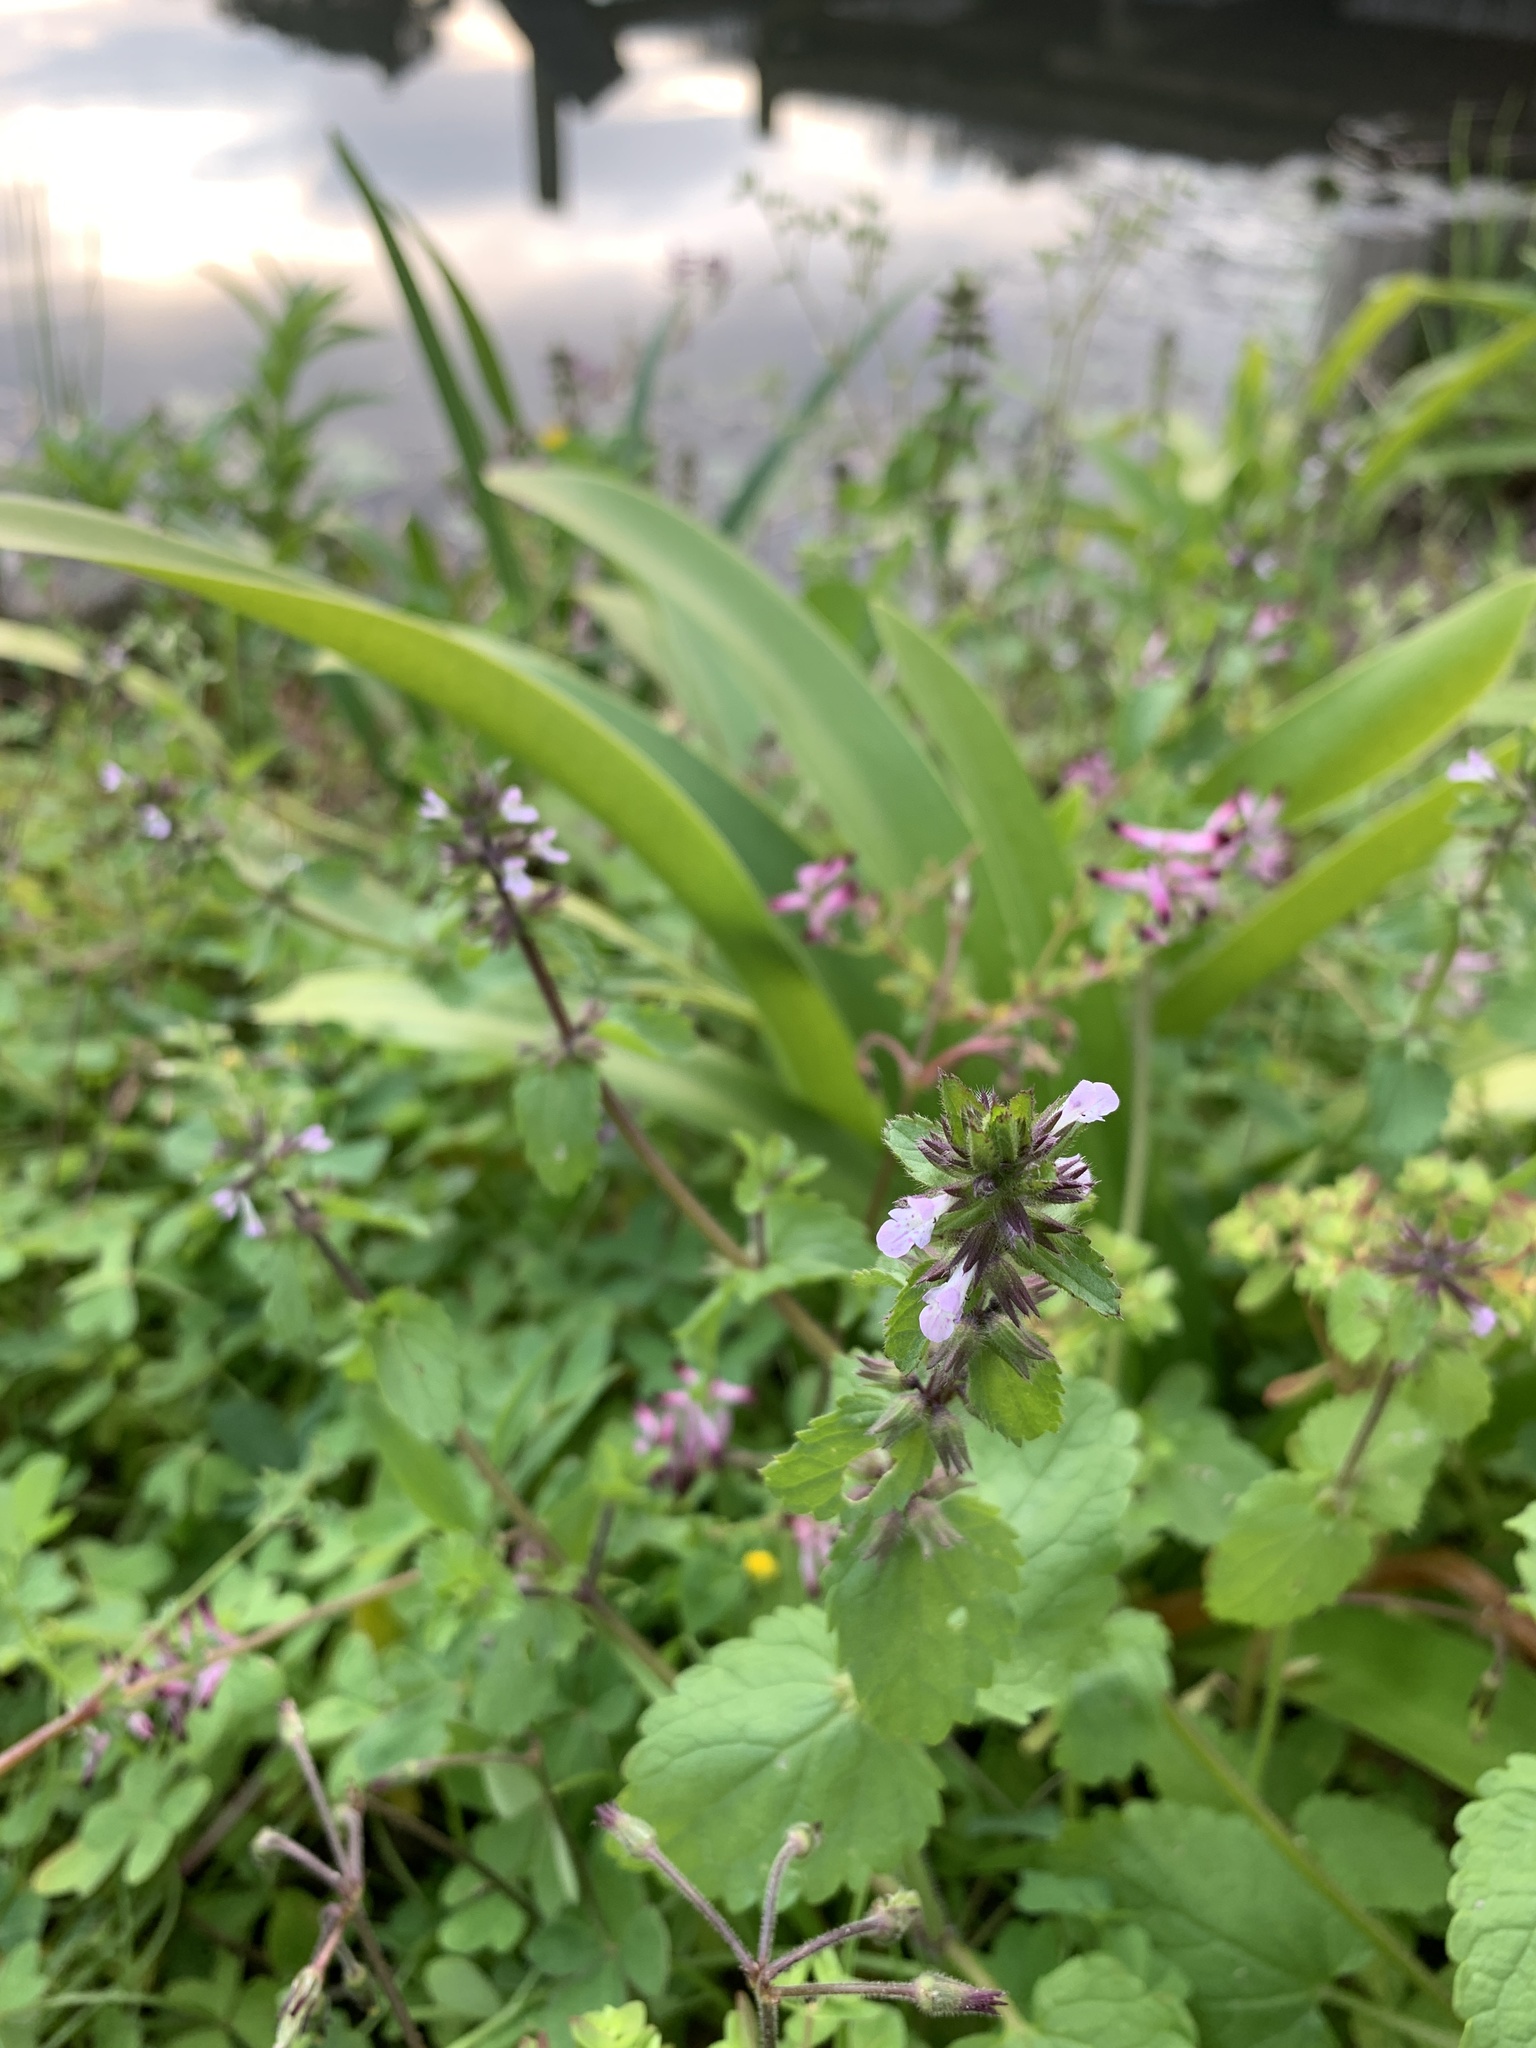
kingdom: Plantae
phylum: Tracheophyta
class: Magnoliopsida
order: Lamiales
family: Lamiaceae
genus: Stachys
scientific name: Stachys arvensis
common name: Field woundwort
